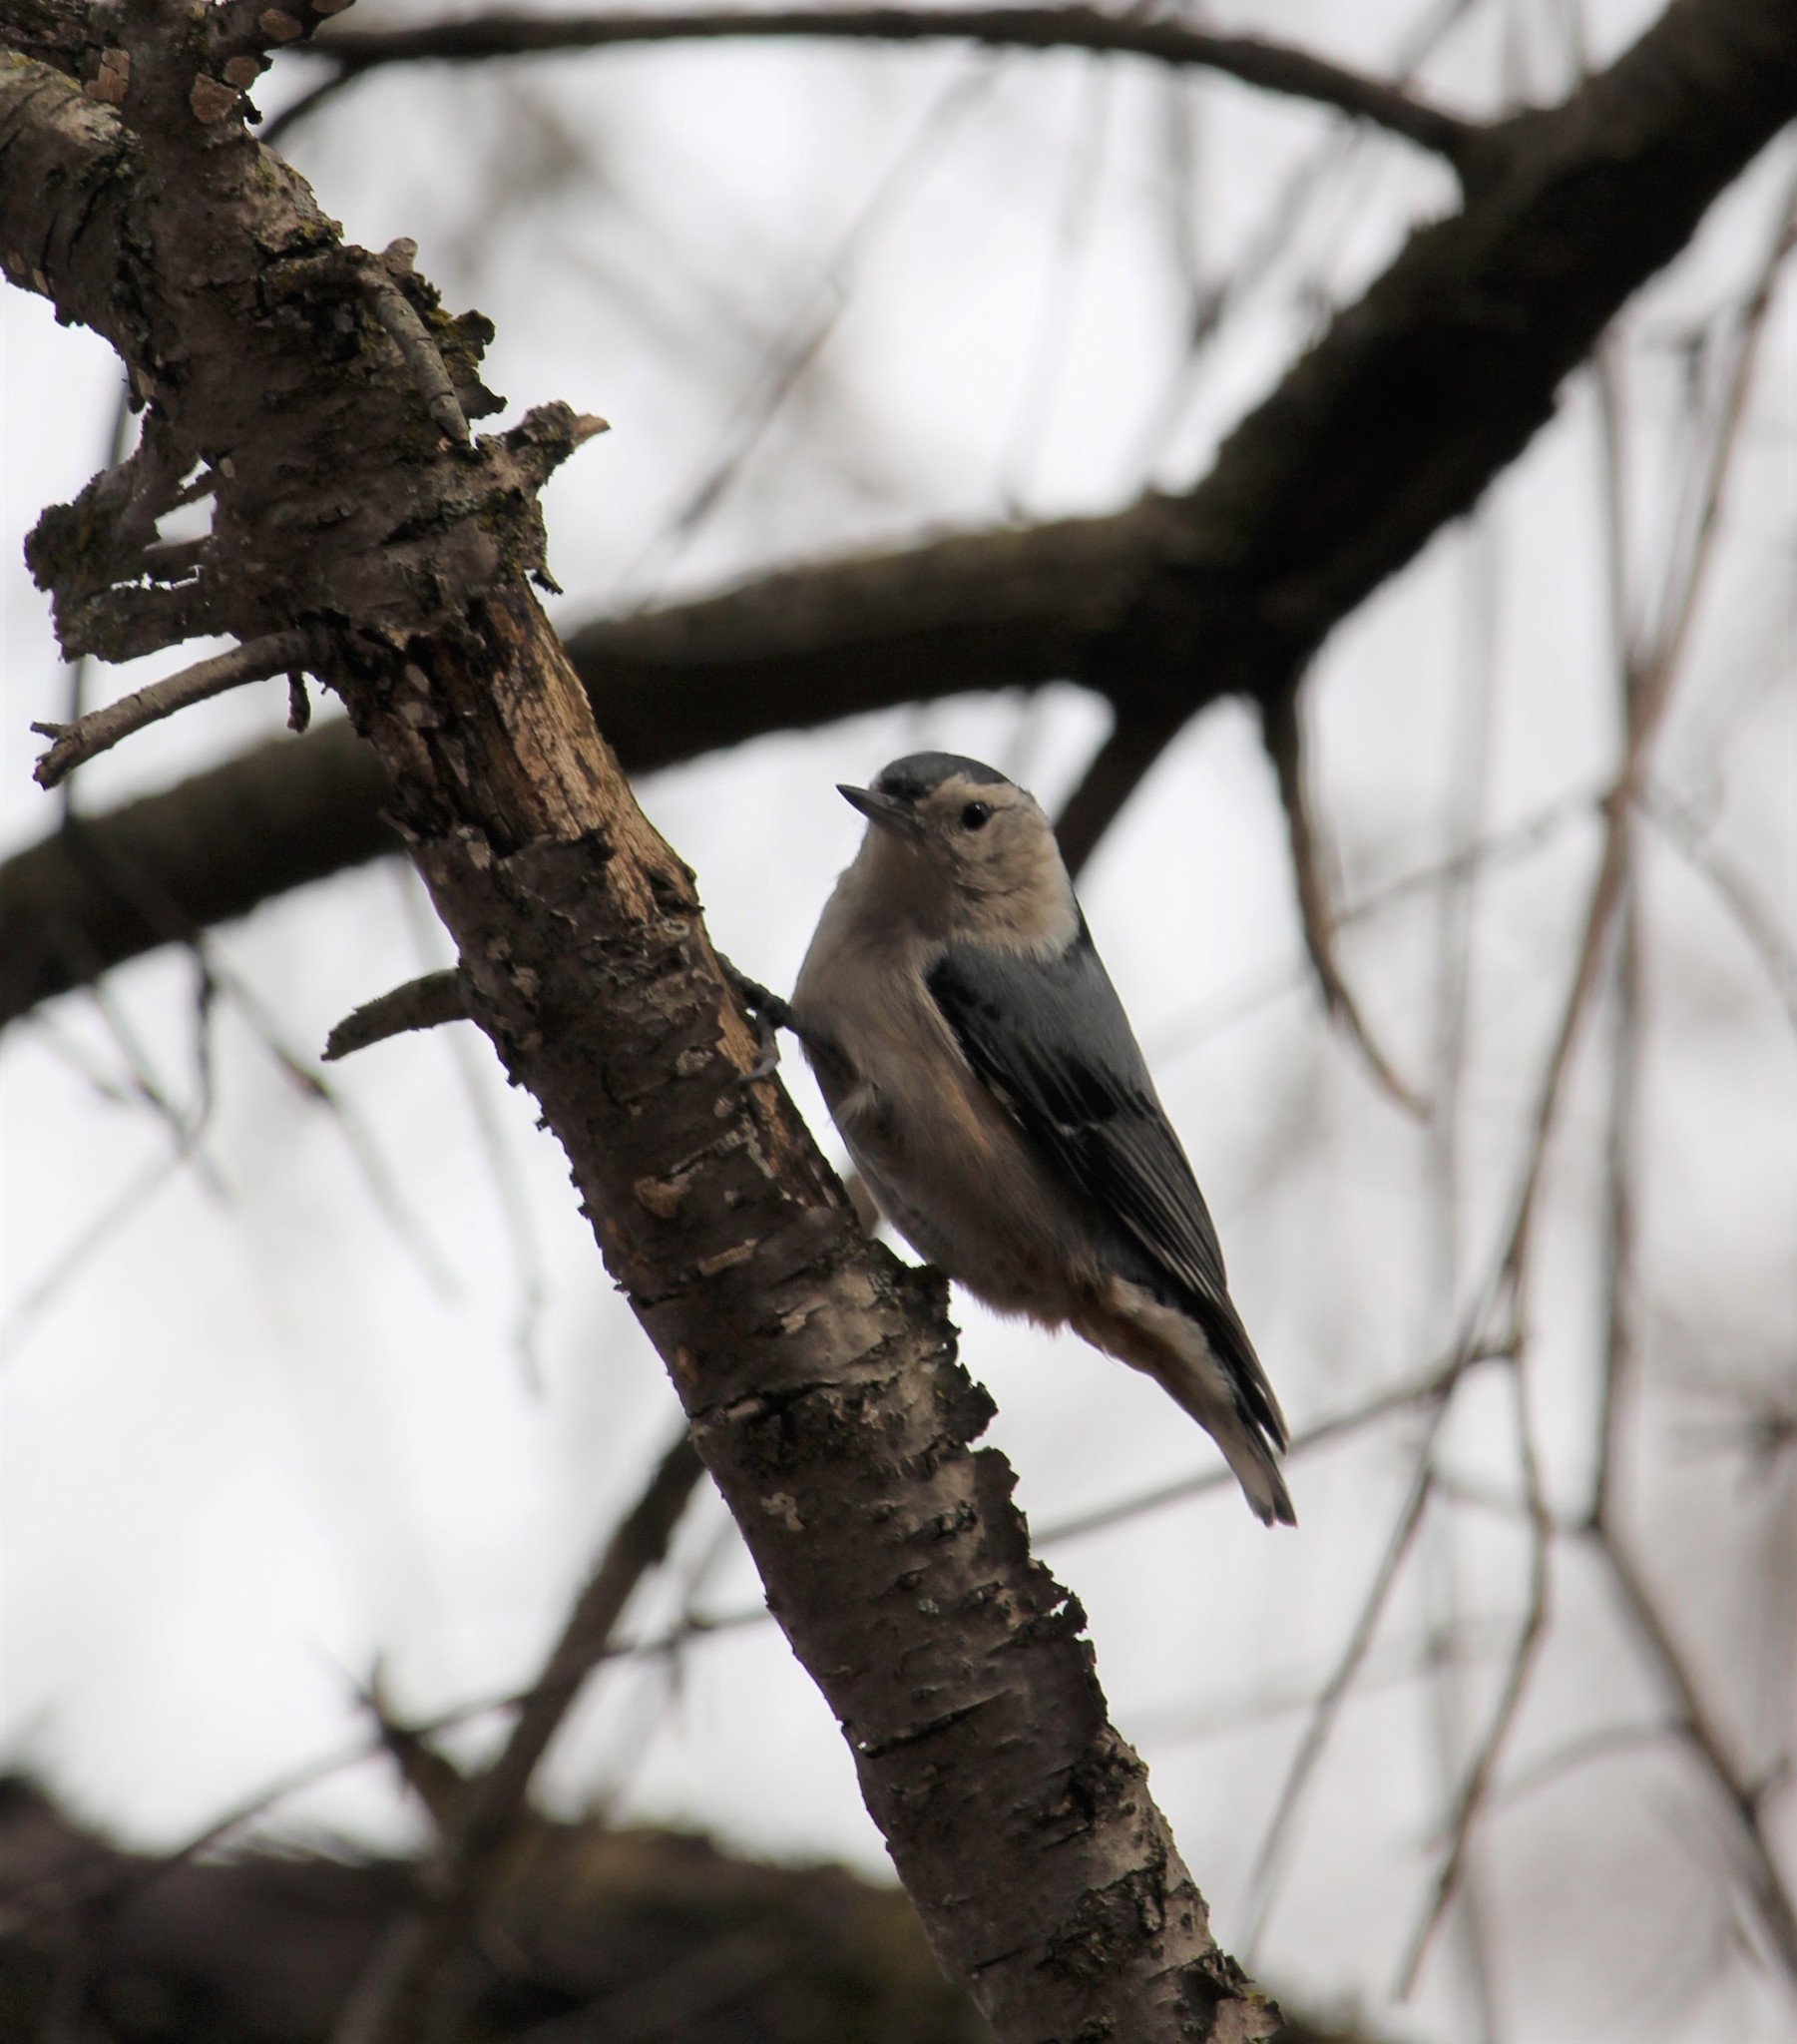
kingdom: Animalia
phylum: Chordata
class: Aves
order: Passeriformes
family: Sittidae
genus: Sitta
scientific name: Sitta carolinensis
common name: White-breasted nuthatch
